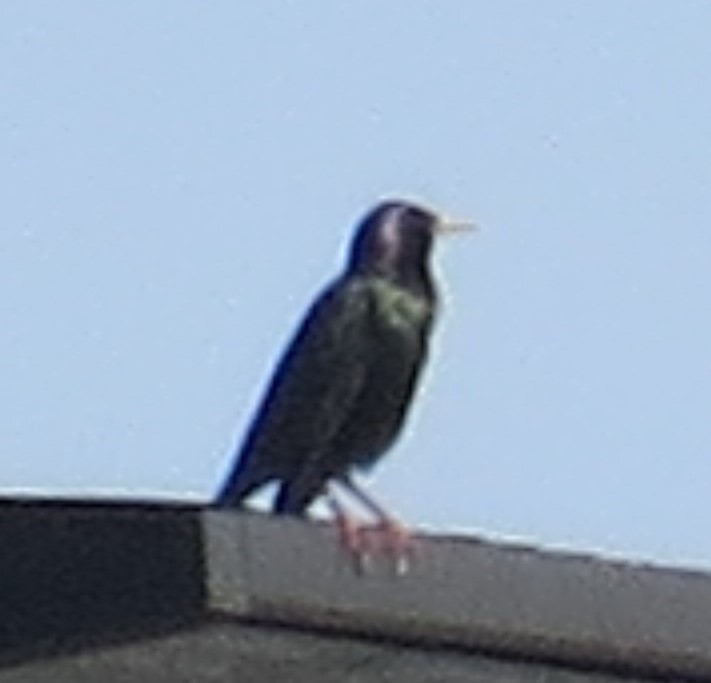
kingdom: Animalia
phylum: Chordata
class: Aves
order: Passeriformes
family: Sturnidae
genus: Sturnus
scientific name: Sturnus vulgaris
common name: Common starling
